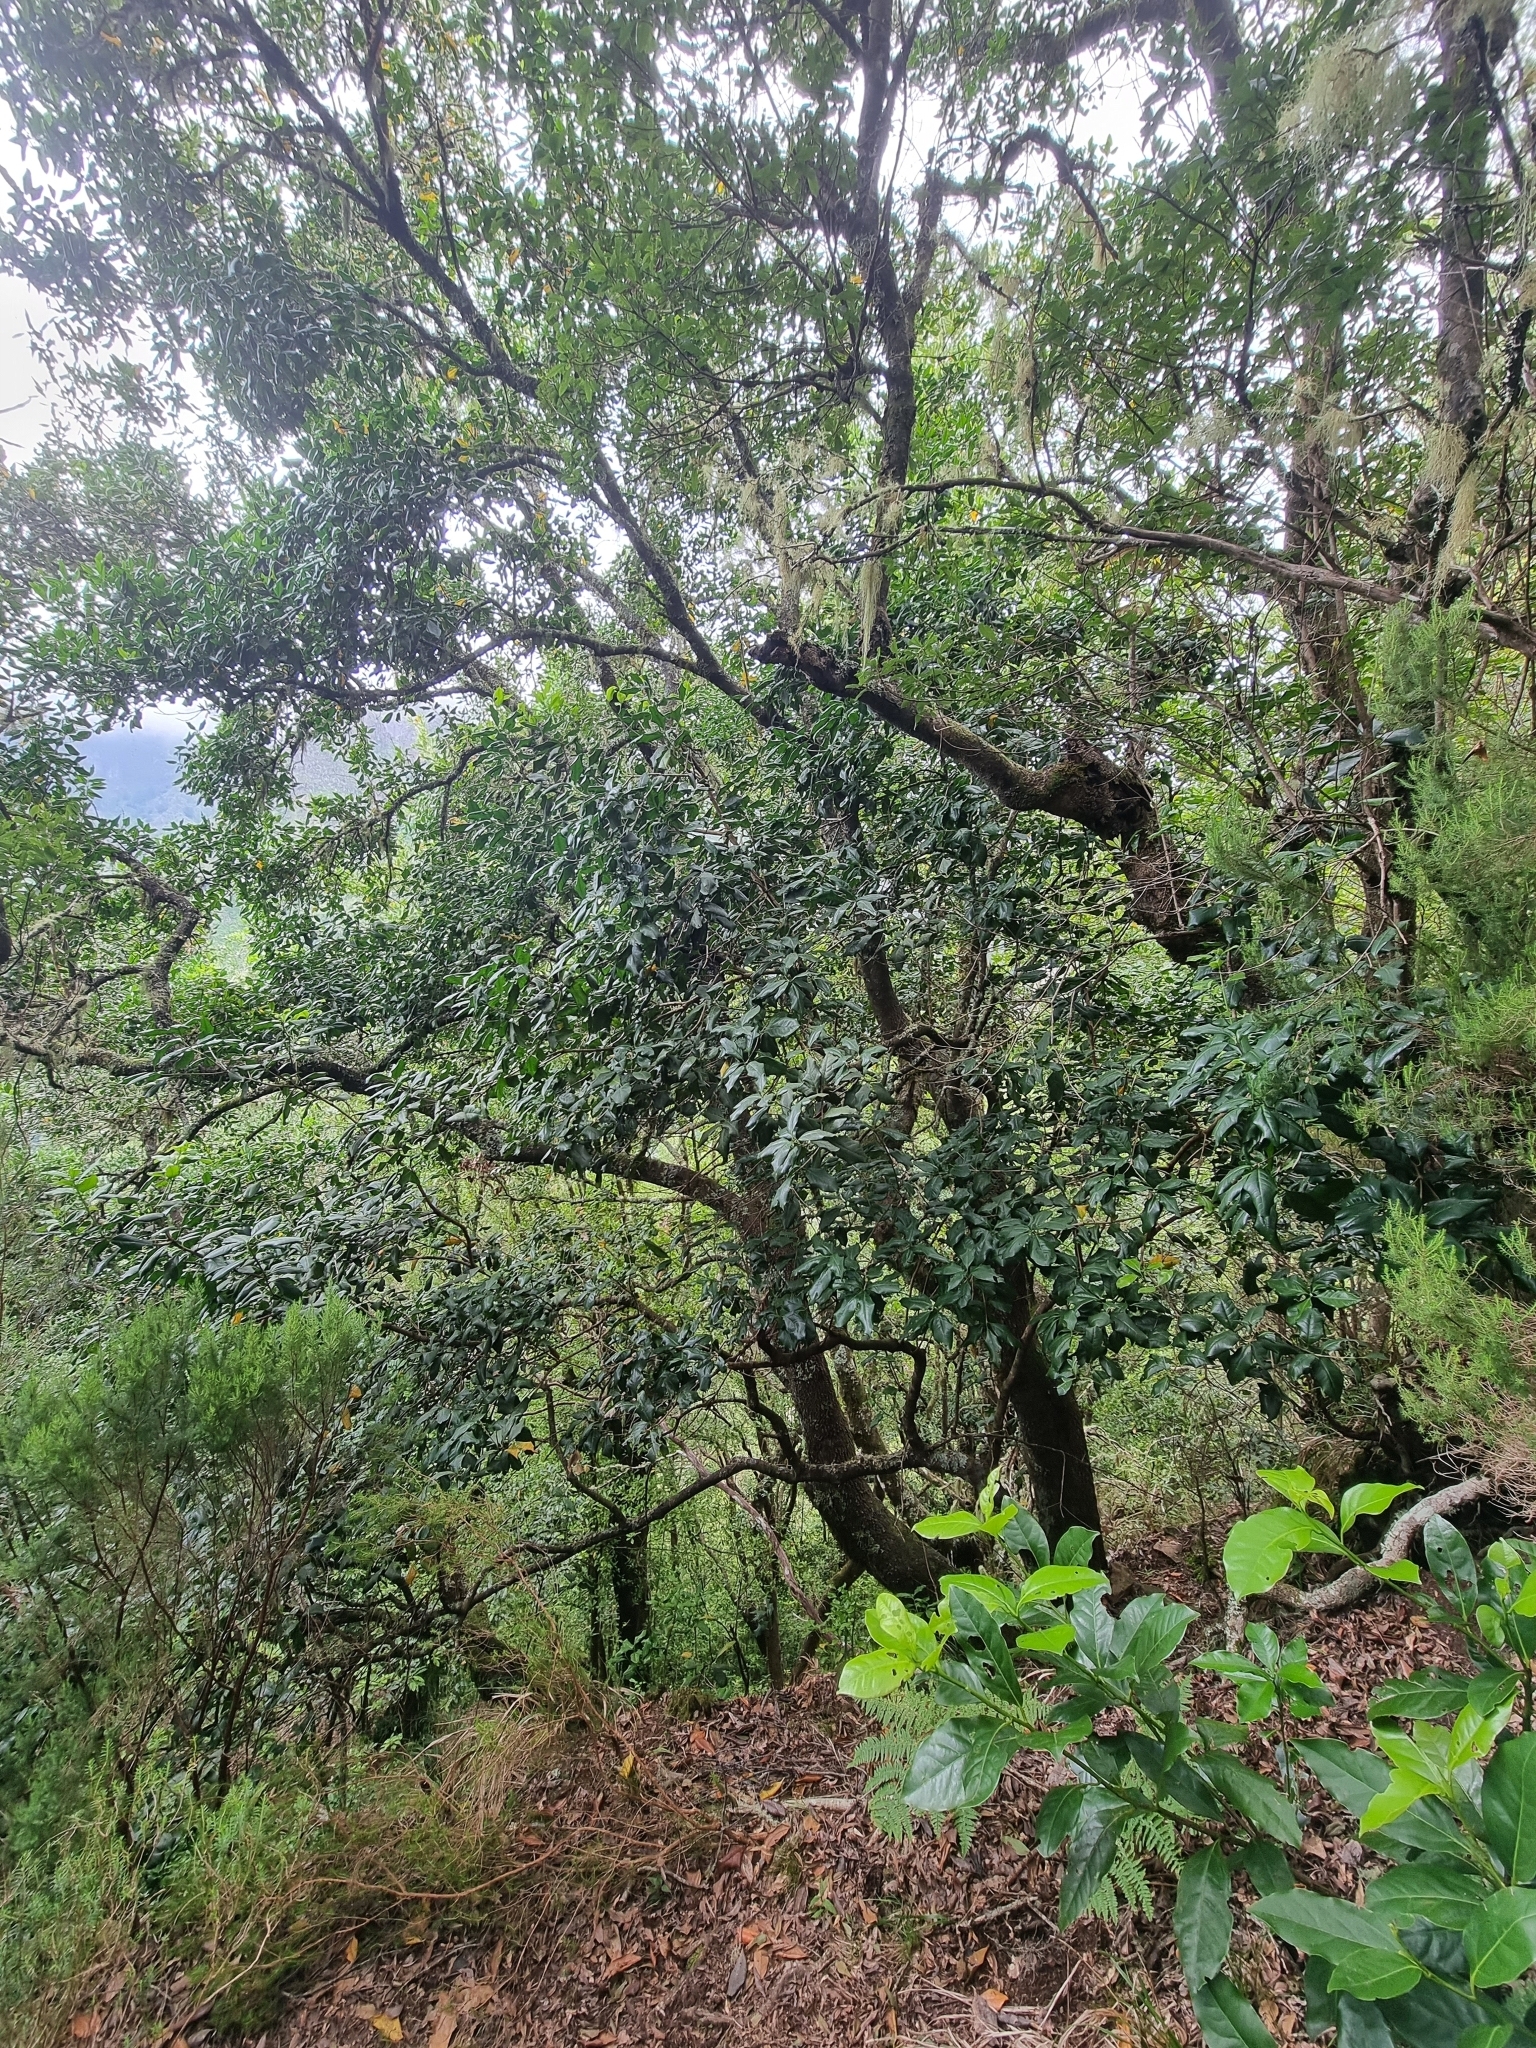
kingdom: Plantae
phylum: Tracheophyta
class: Magnoliopsida
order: Lamiales
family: Oleaceae
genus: Picconia
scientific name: Picconia excelsa
